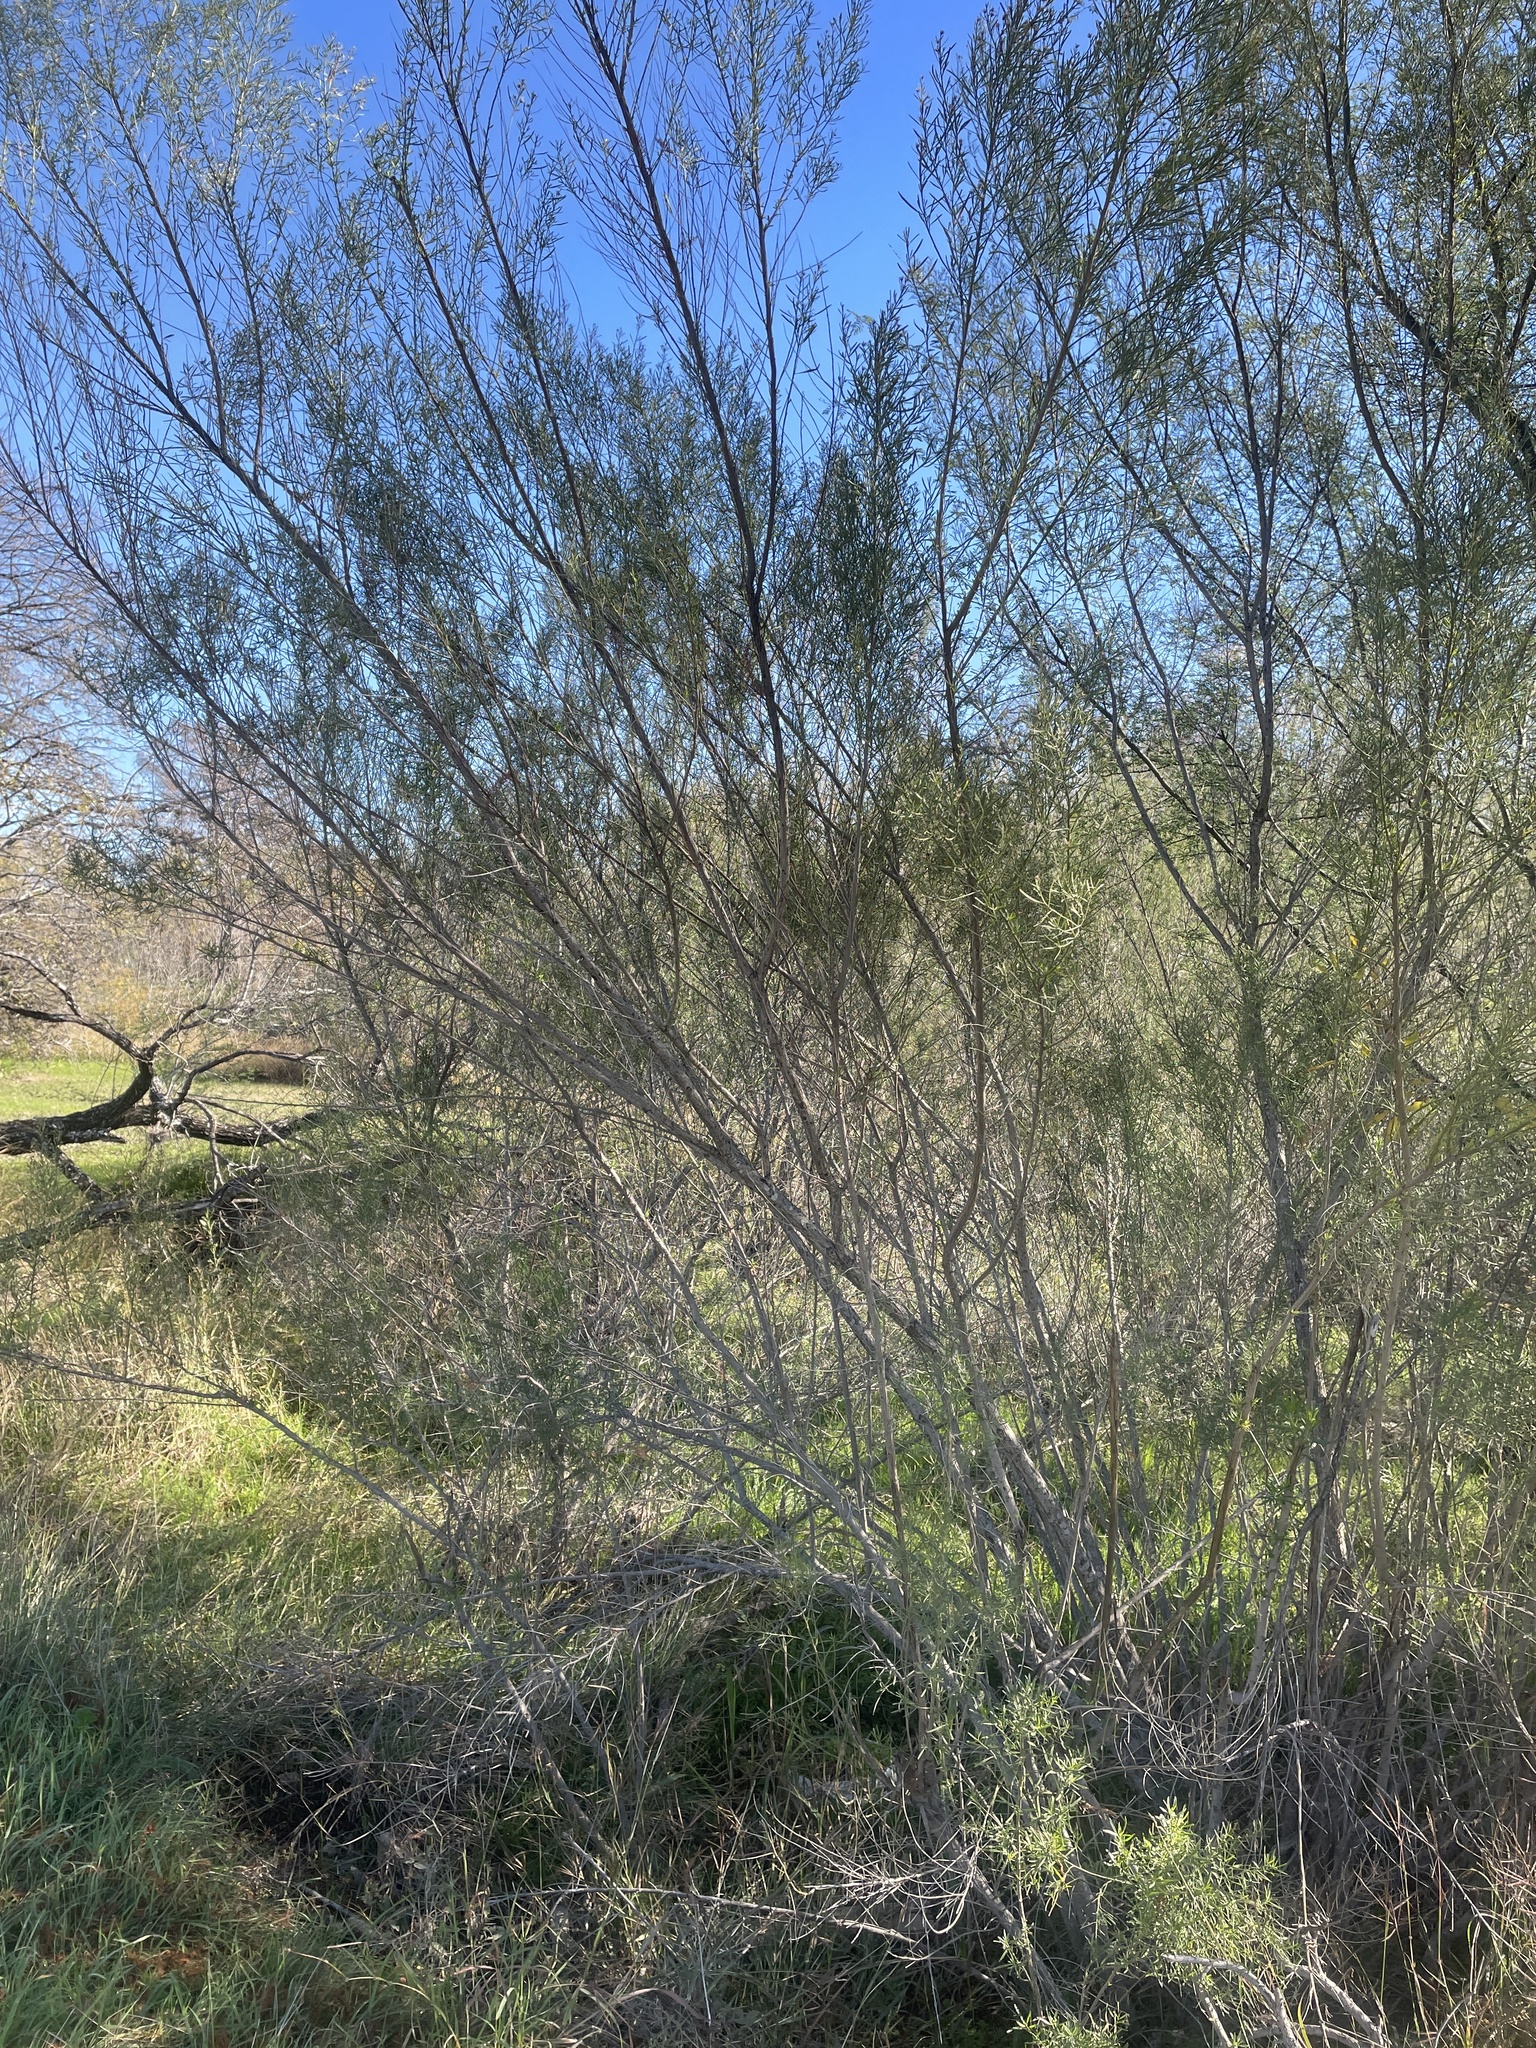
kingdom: Plantae
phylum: Tracheophyta
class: Magnoliopsida
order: Asterales
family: Asteraceae
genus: Baccharis
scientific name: Baccharis neglecta
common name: Roosevelt-weed
